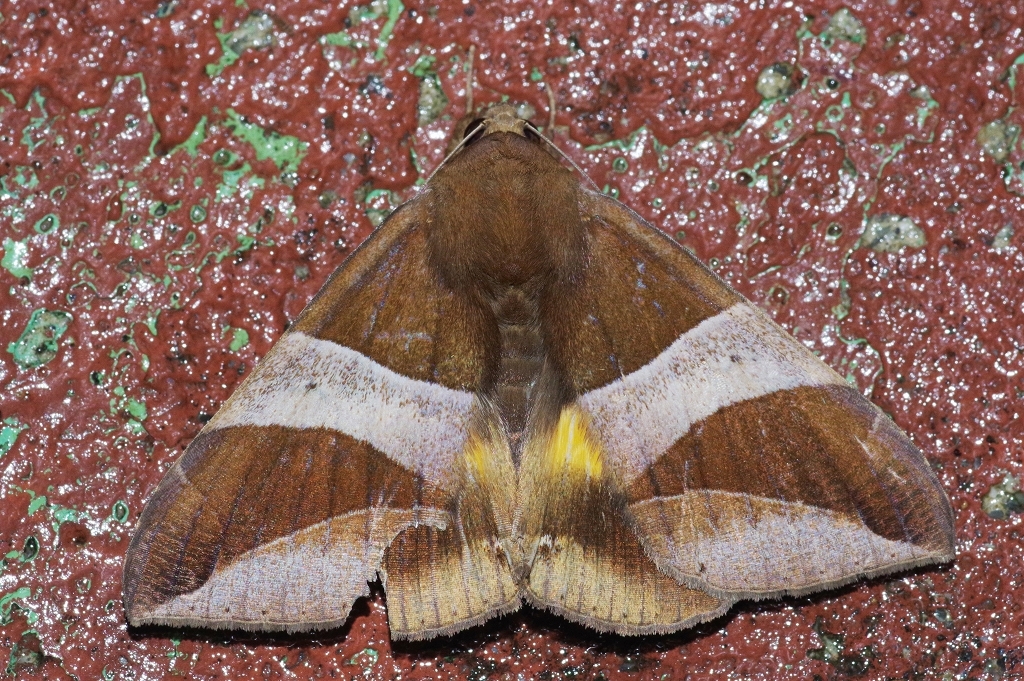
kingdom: Animalia
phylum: Arthropoda
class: Insecta
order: Lepidoptera
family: Erebidae
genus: Bastilla
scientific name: Bastilla fulvotaenia
